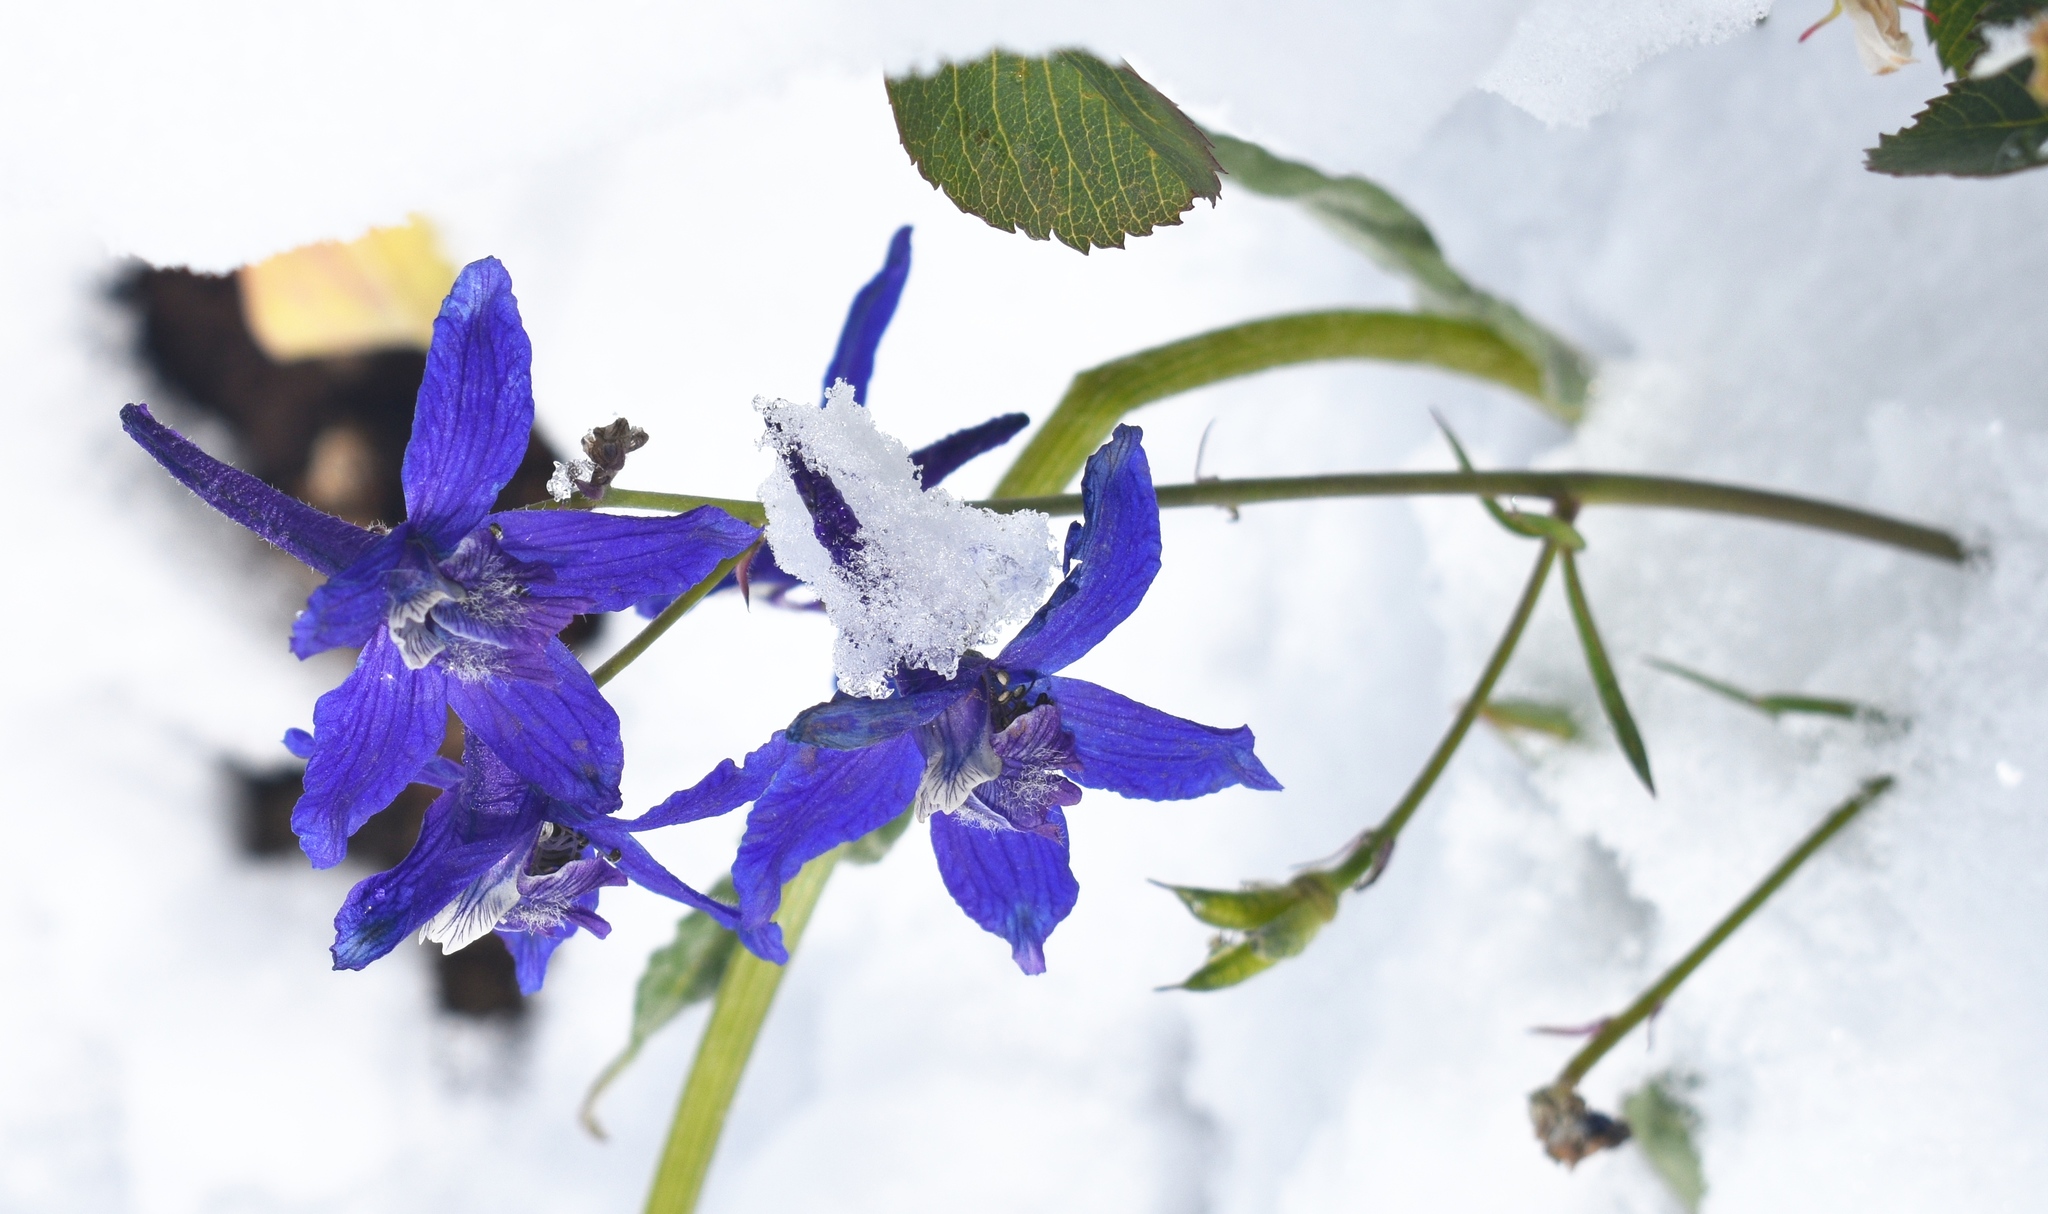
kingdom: Plantae
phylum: Tracheophyta
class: Magnoliopsida
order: Ranunculales
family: Ranunculaceae
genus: Delphinium
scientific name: Delphinium nuttallianum
